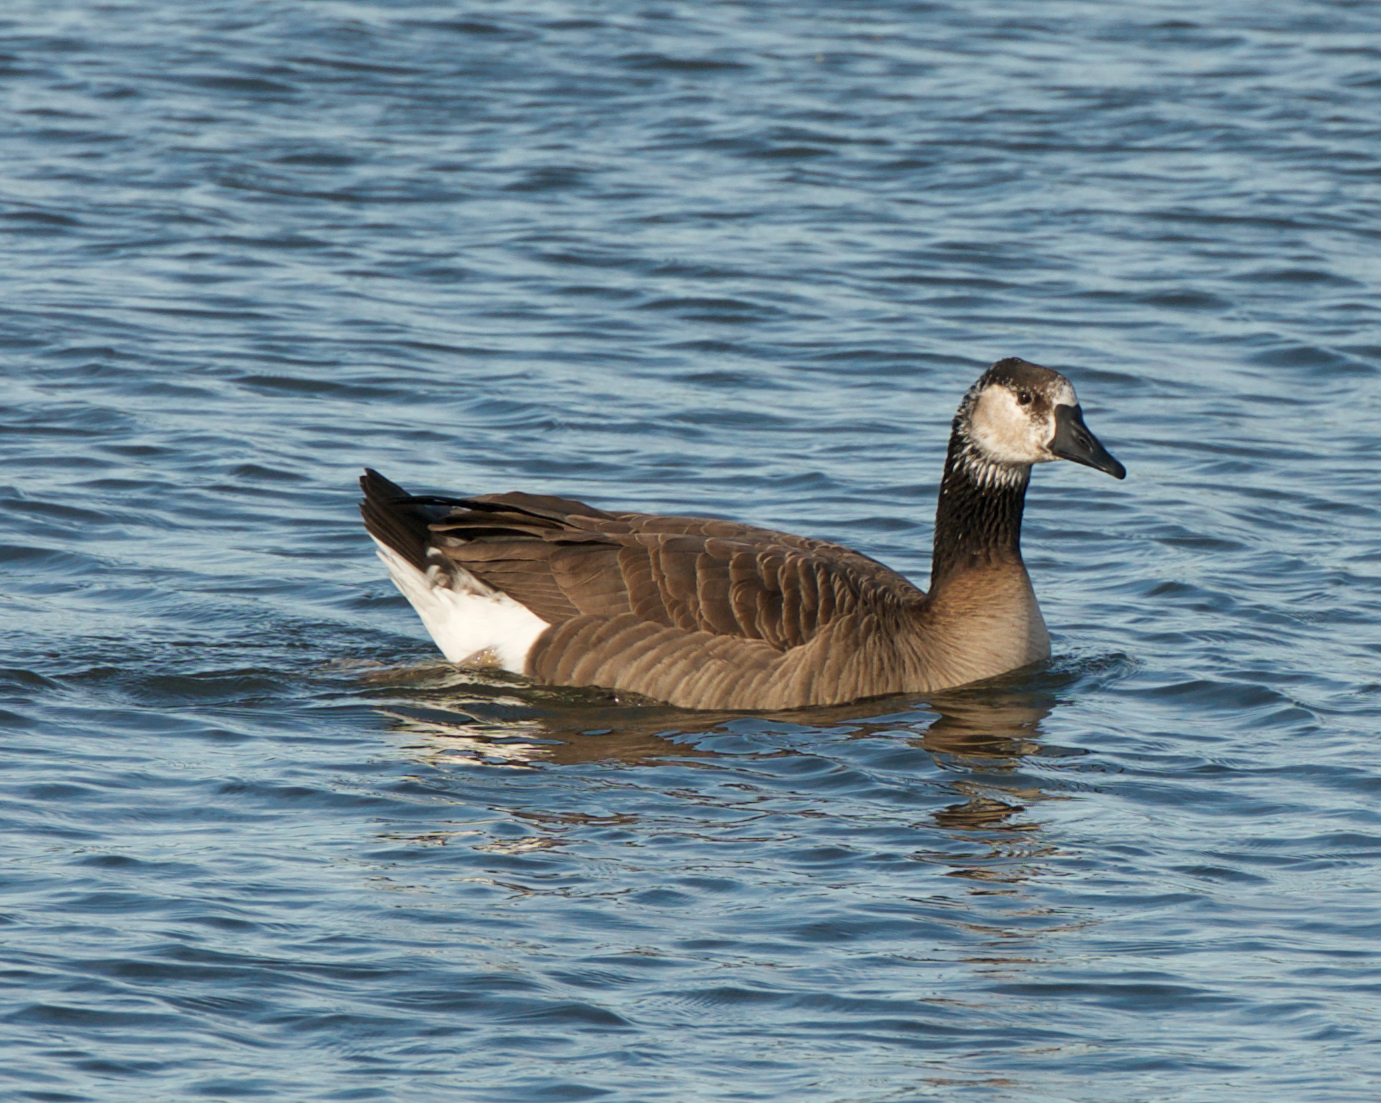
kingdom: Animalia
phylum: Chordata
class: Aves
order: Anseriformes
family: Anatidae
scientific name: Anatidae
